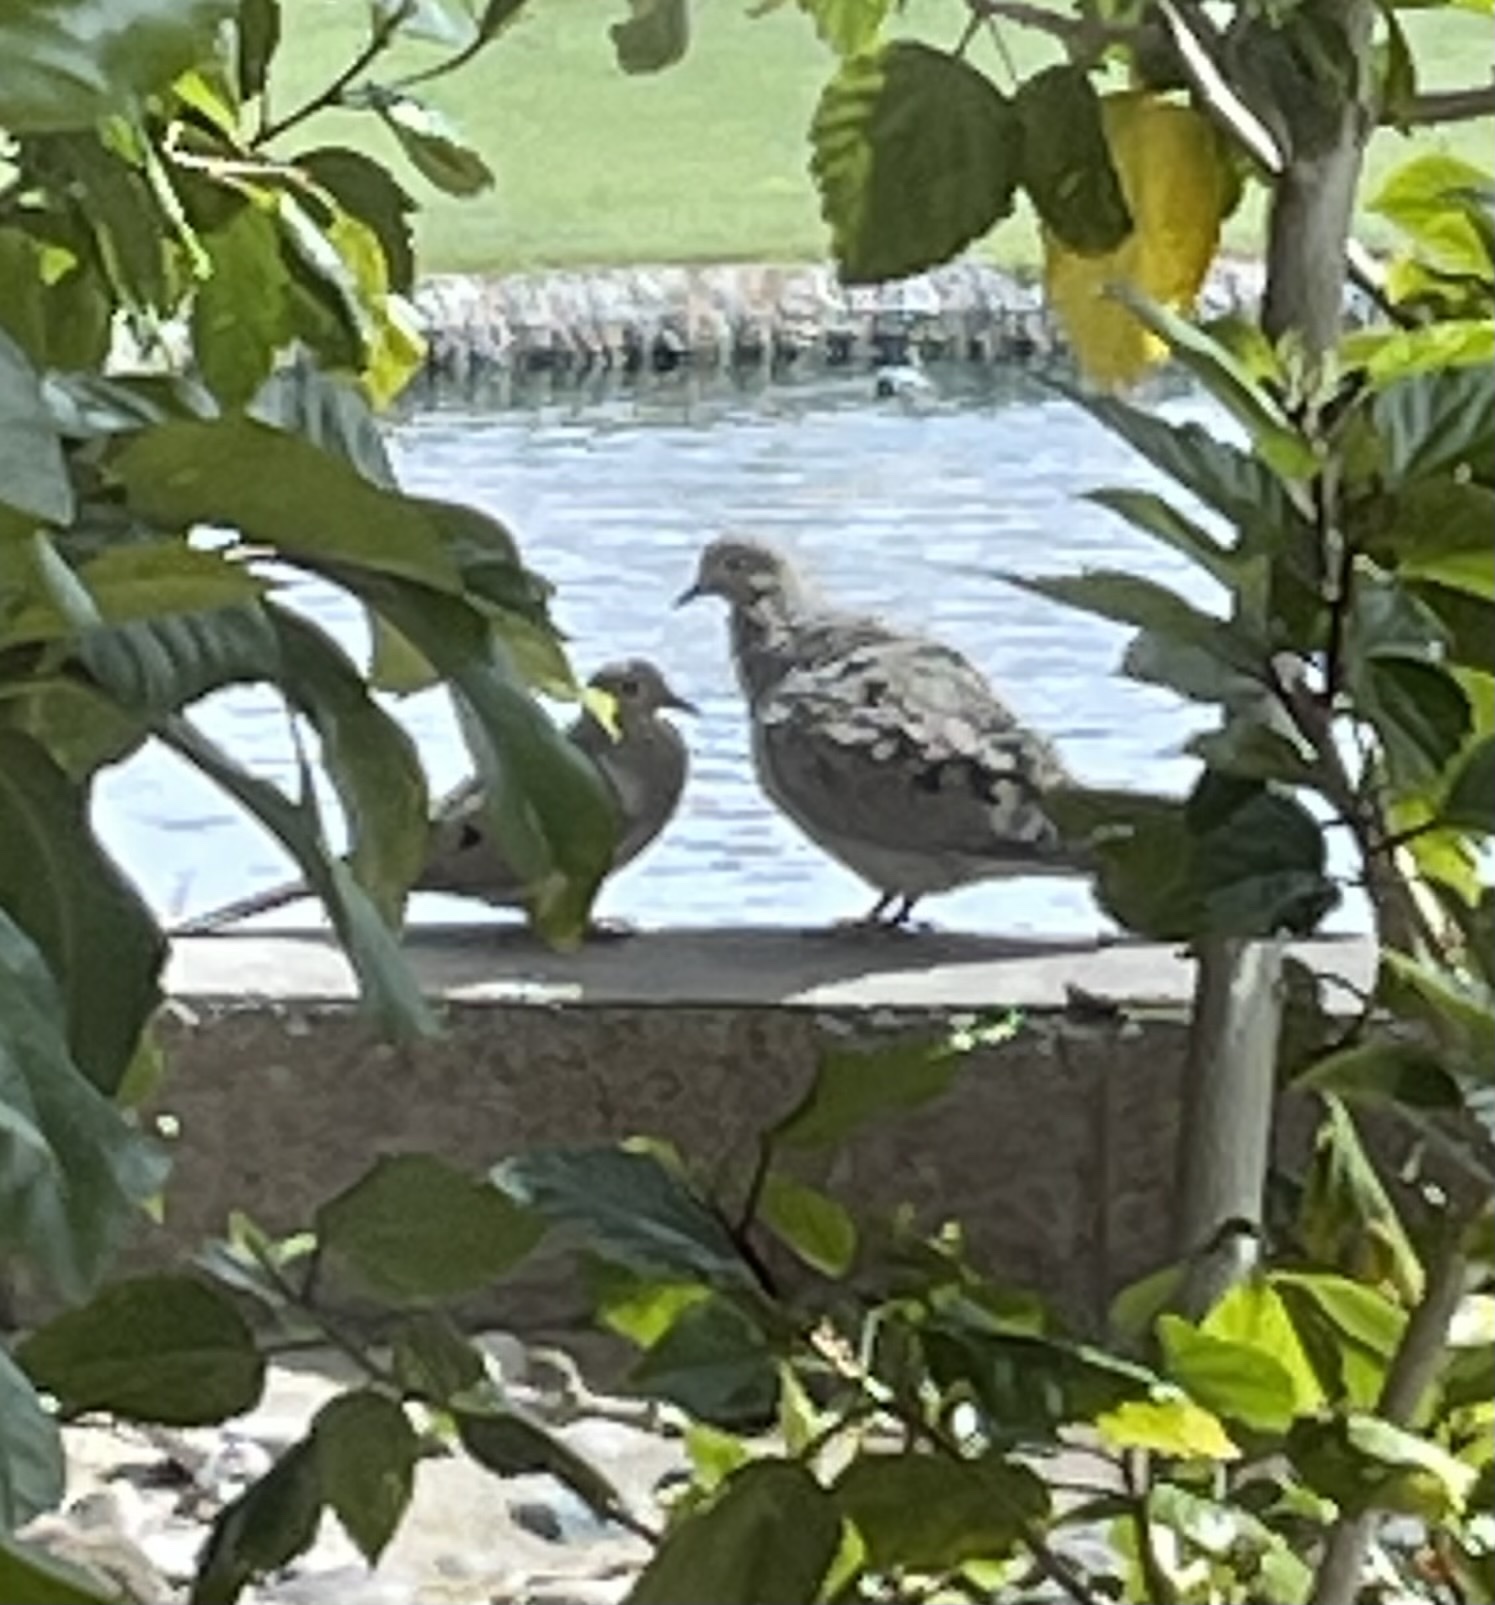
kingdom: Animalia
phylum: Chordata
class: Aves
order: Columbiformes
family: Columbidae
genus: Zenaida
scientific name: Zenaida macroura
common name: Mourning dove
